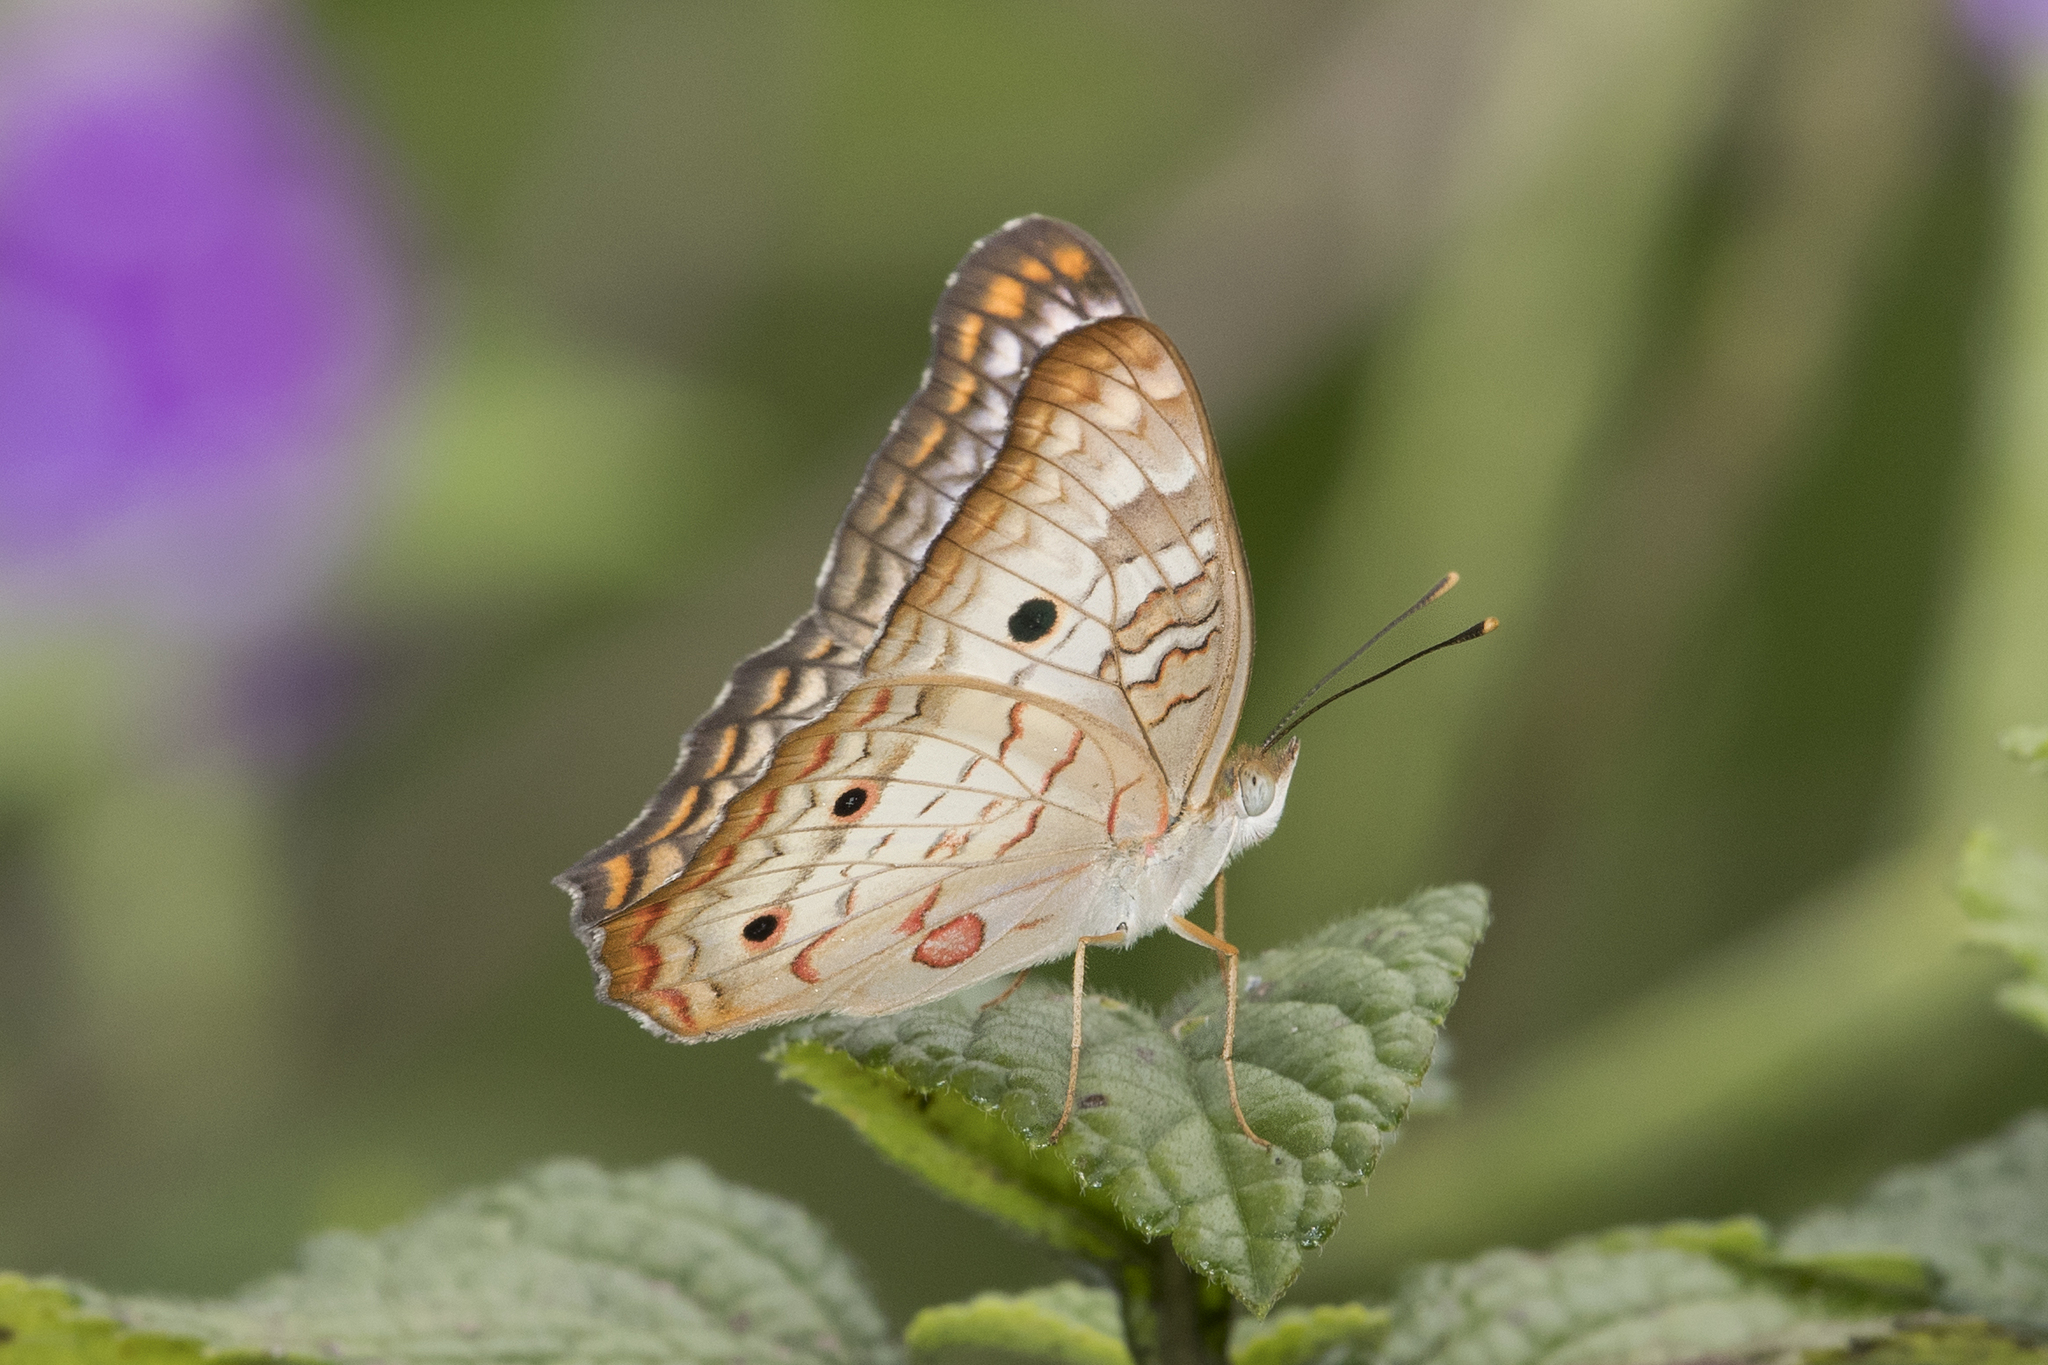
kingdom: Animalia
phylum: Arthropoda
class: Insecta
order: Lepidoptera
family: Nymphalidae
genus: Anartia
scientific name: Anartia jatrophae
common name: White peacock
